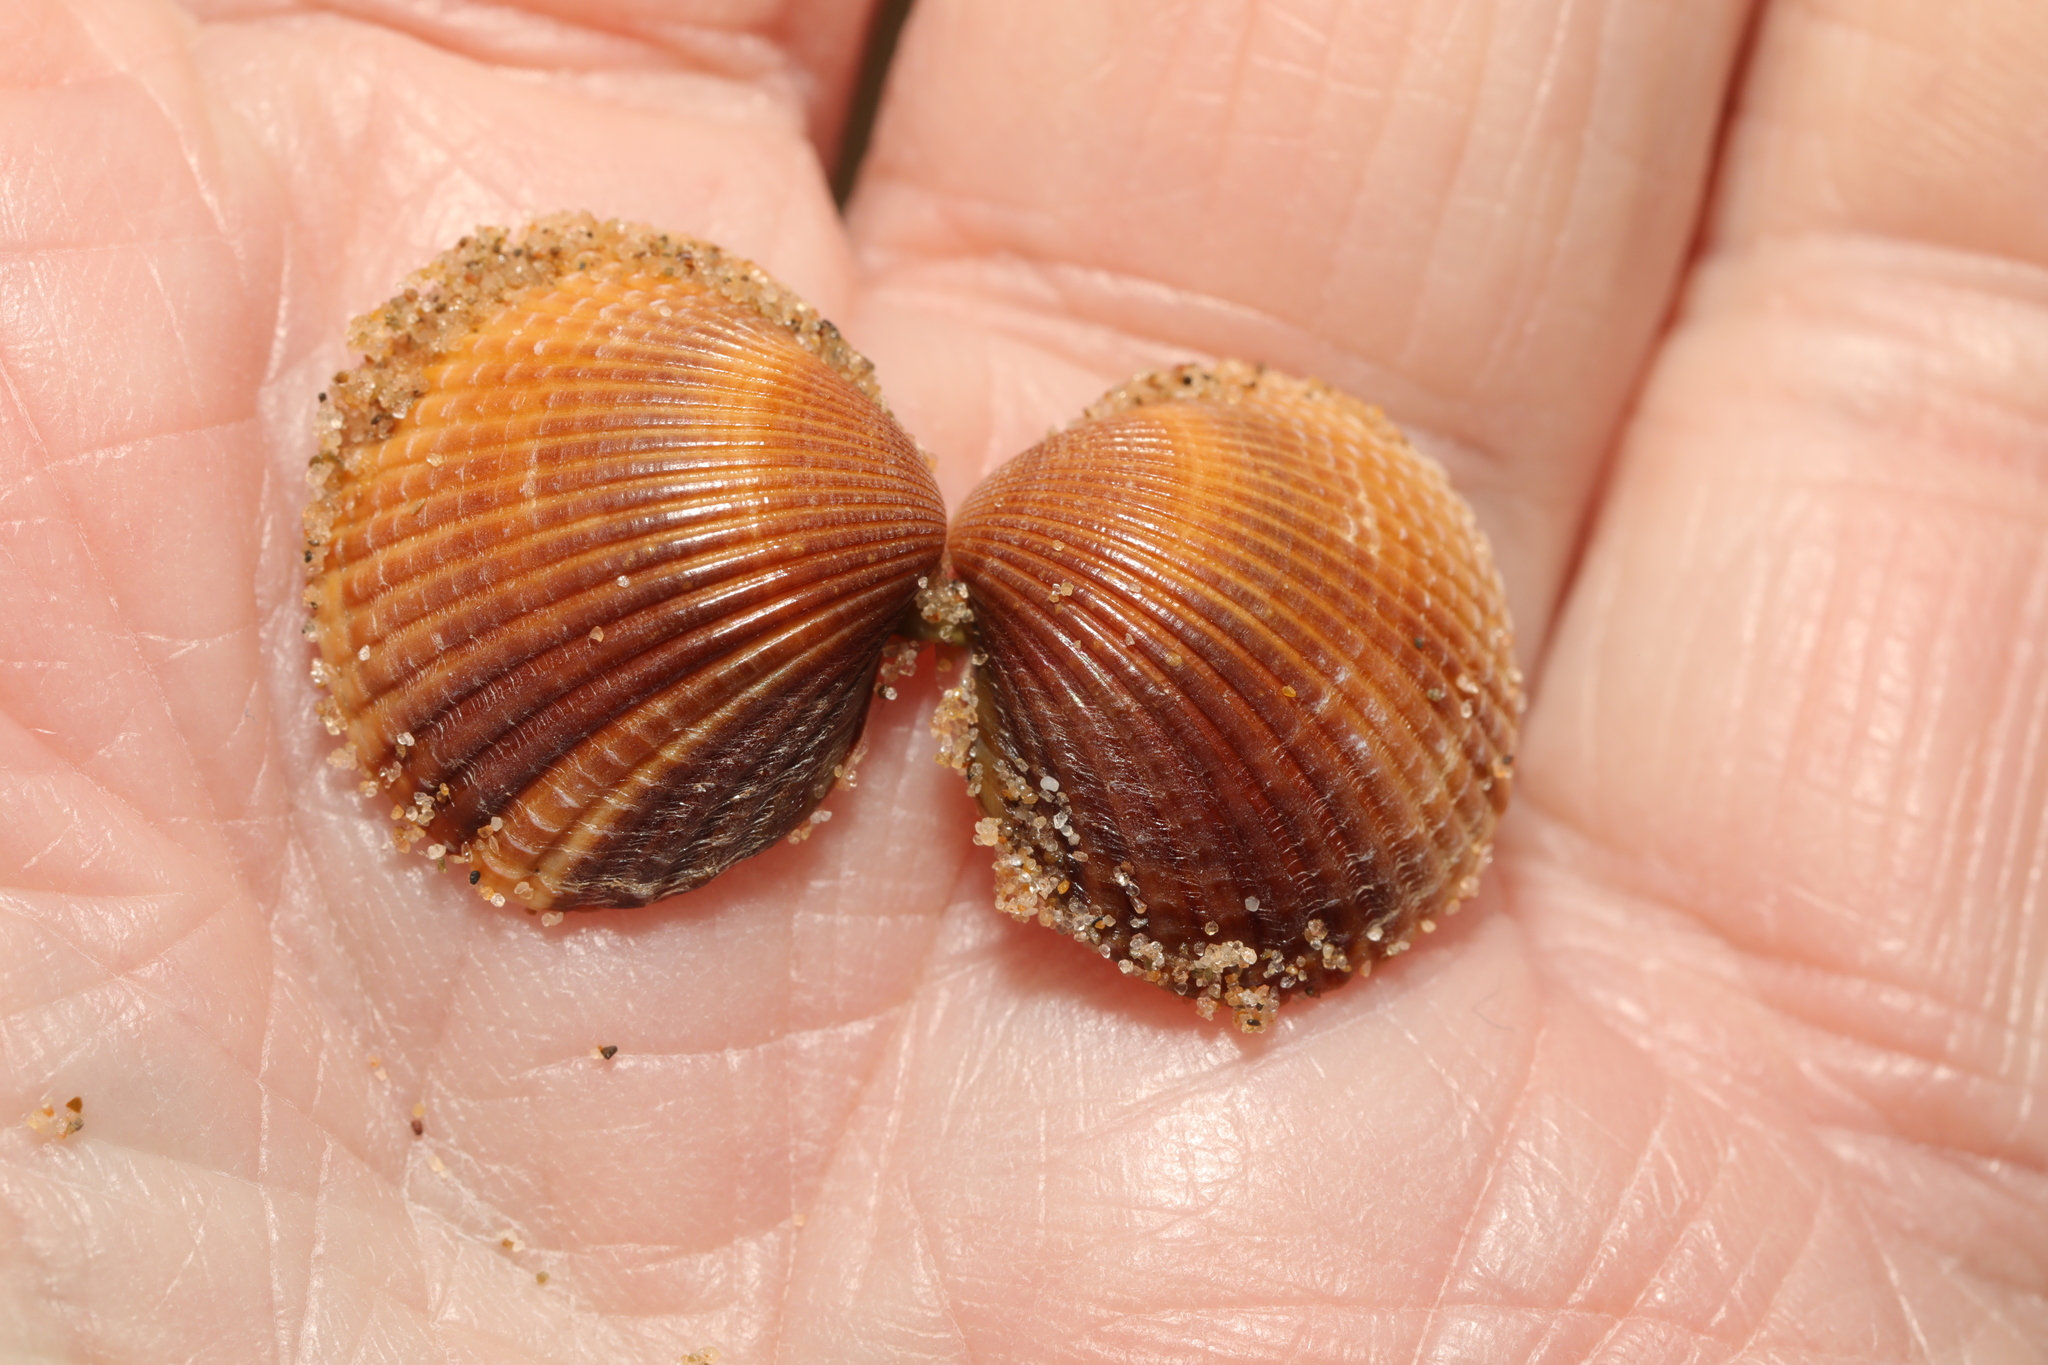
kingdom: Animalia
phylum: Mollusca
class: Bivalvia
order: Cardiida
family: Cardiidae
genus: Cerastoderma
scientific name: Cerastoderma edule
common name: Common cockle
